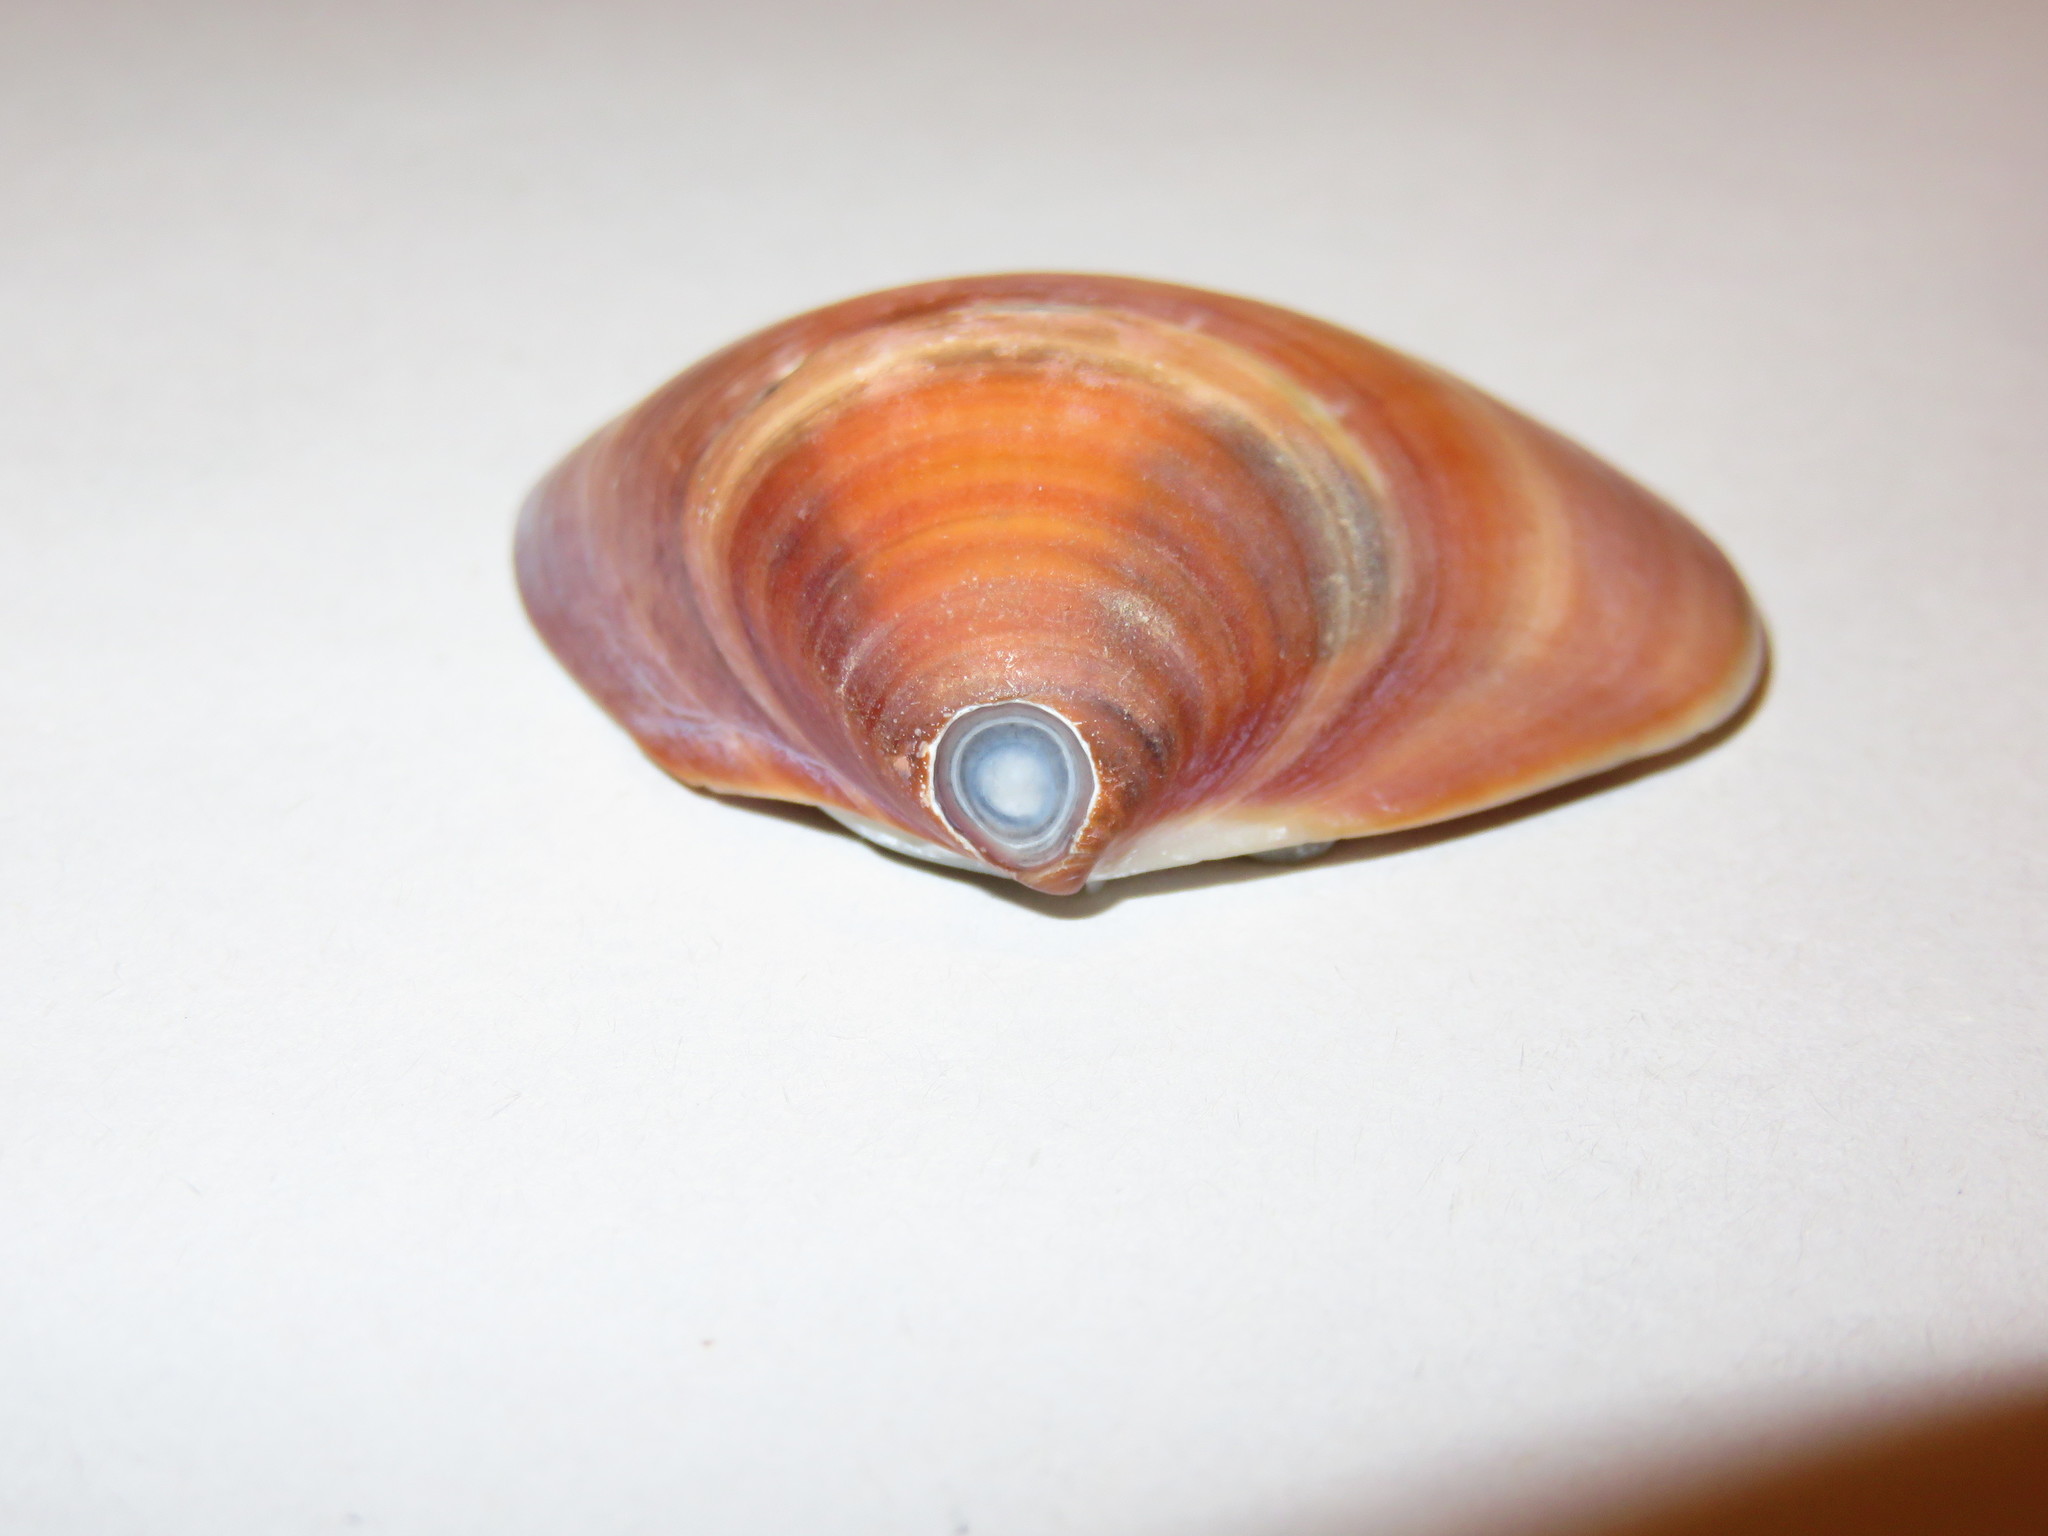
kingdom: Animalia
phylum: Mollusca
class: Bivalvia
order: Venerida
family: Veneridae
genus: Meretrix
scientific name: Meretrix lamarckii
